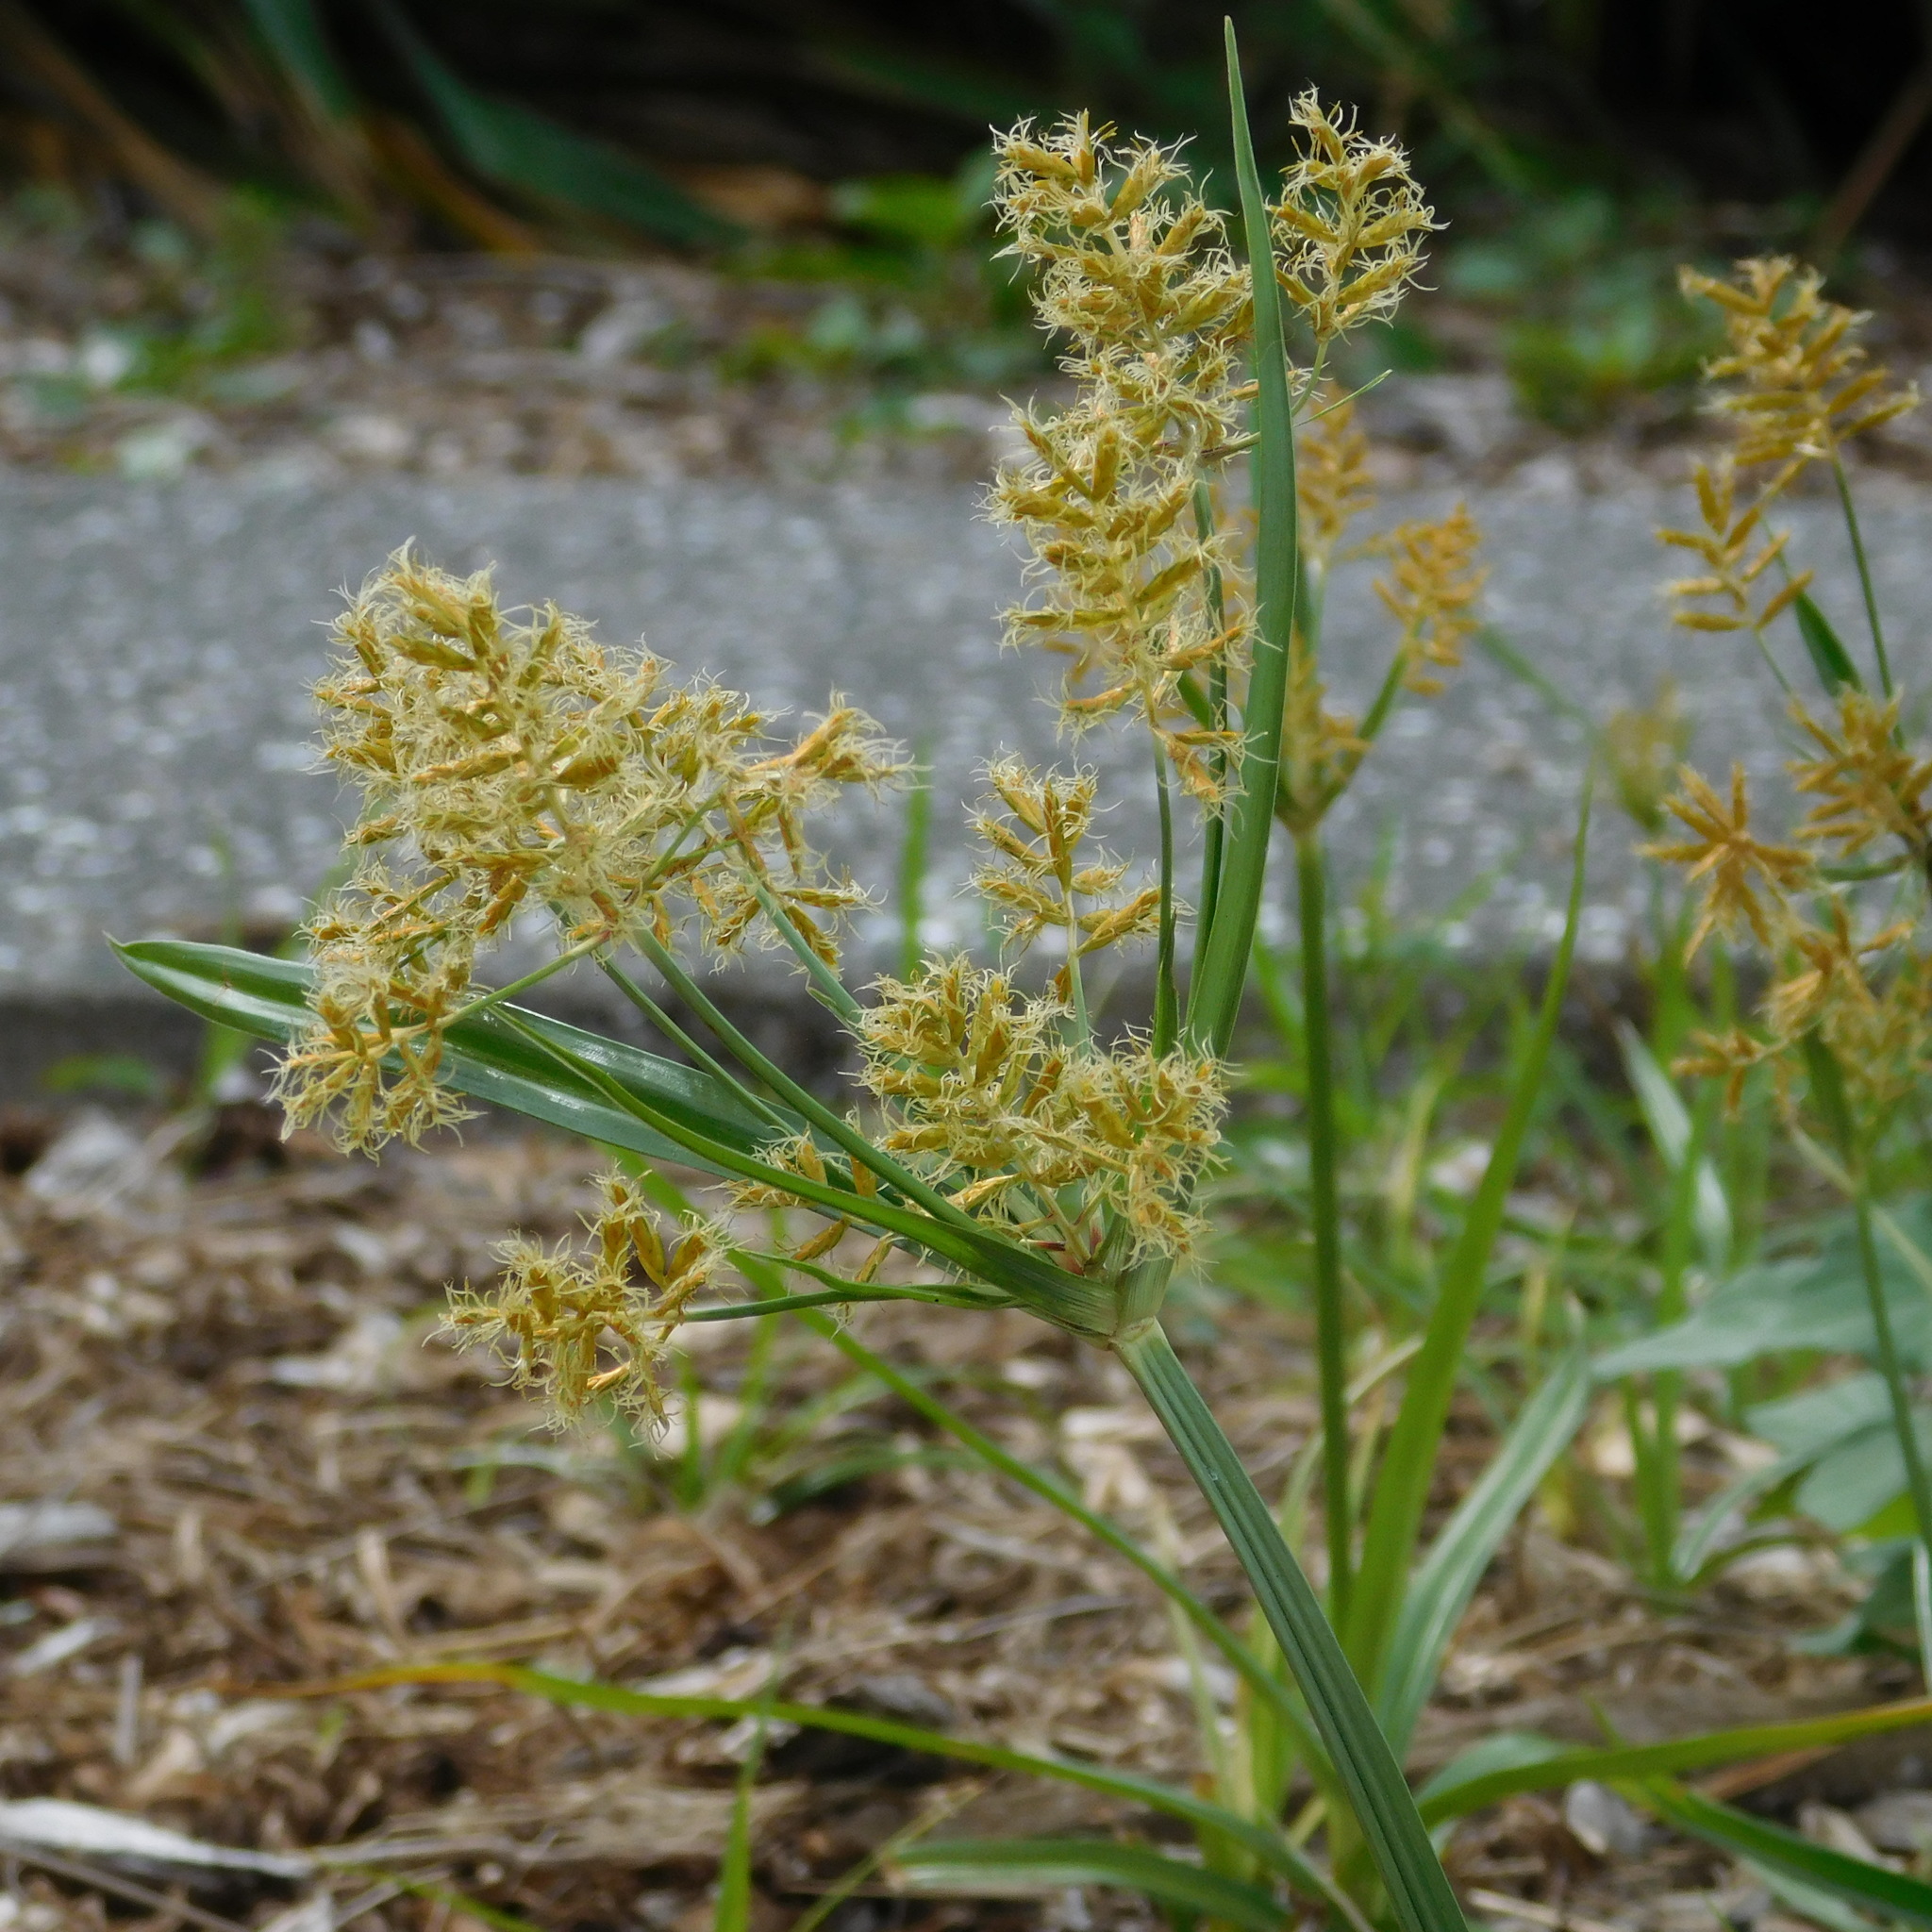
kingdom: Plantae
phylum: Tracheophyta
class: Liliopsida
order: Poales
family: Cyperaceae
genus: Cyperus
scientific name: Cyperus esculentus
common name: Yellow nutsedge
